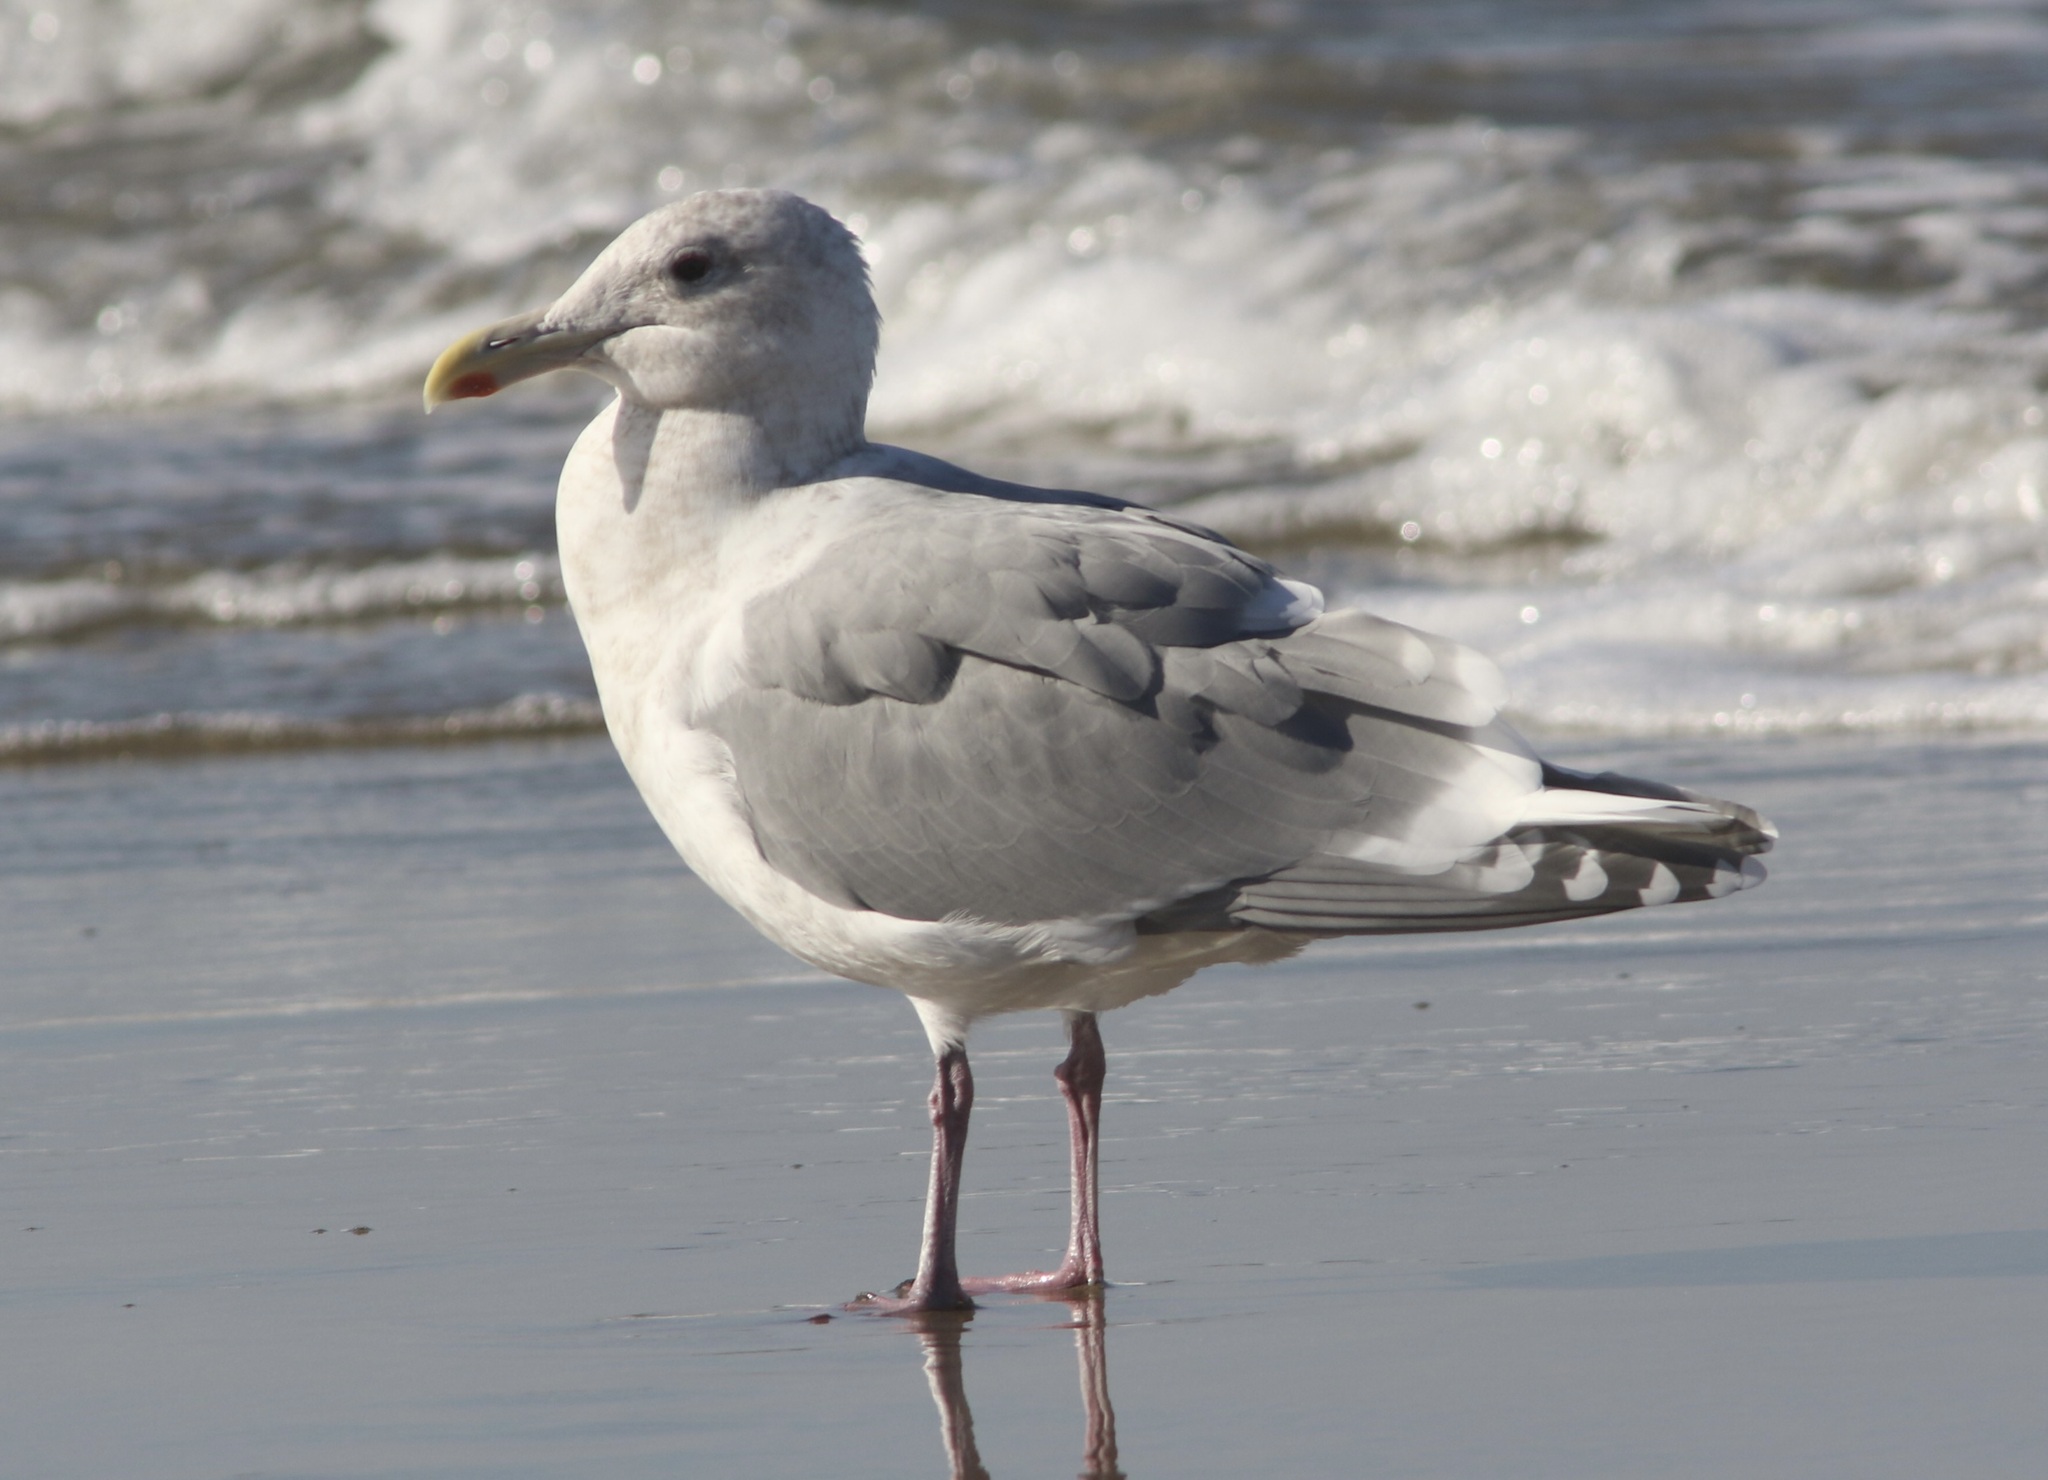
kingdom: Animalia
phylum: Chordata
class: Aves
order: Charadriiformes
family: Laridae
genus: Larus
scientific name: Larus glaucescens
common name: Glaucous-winged gull
